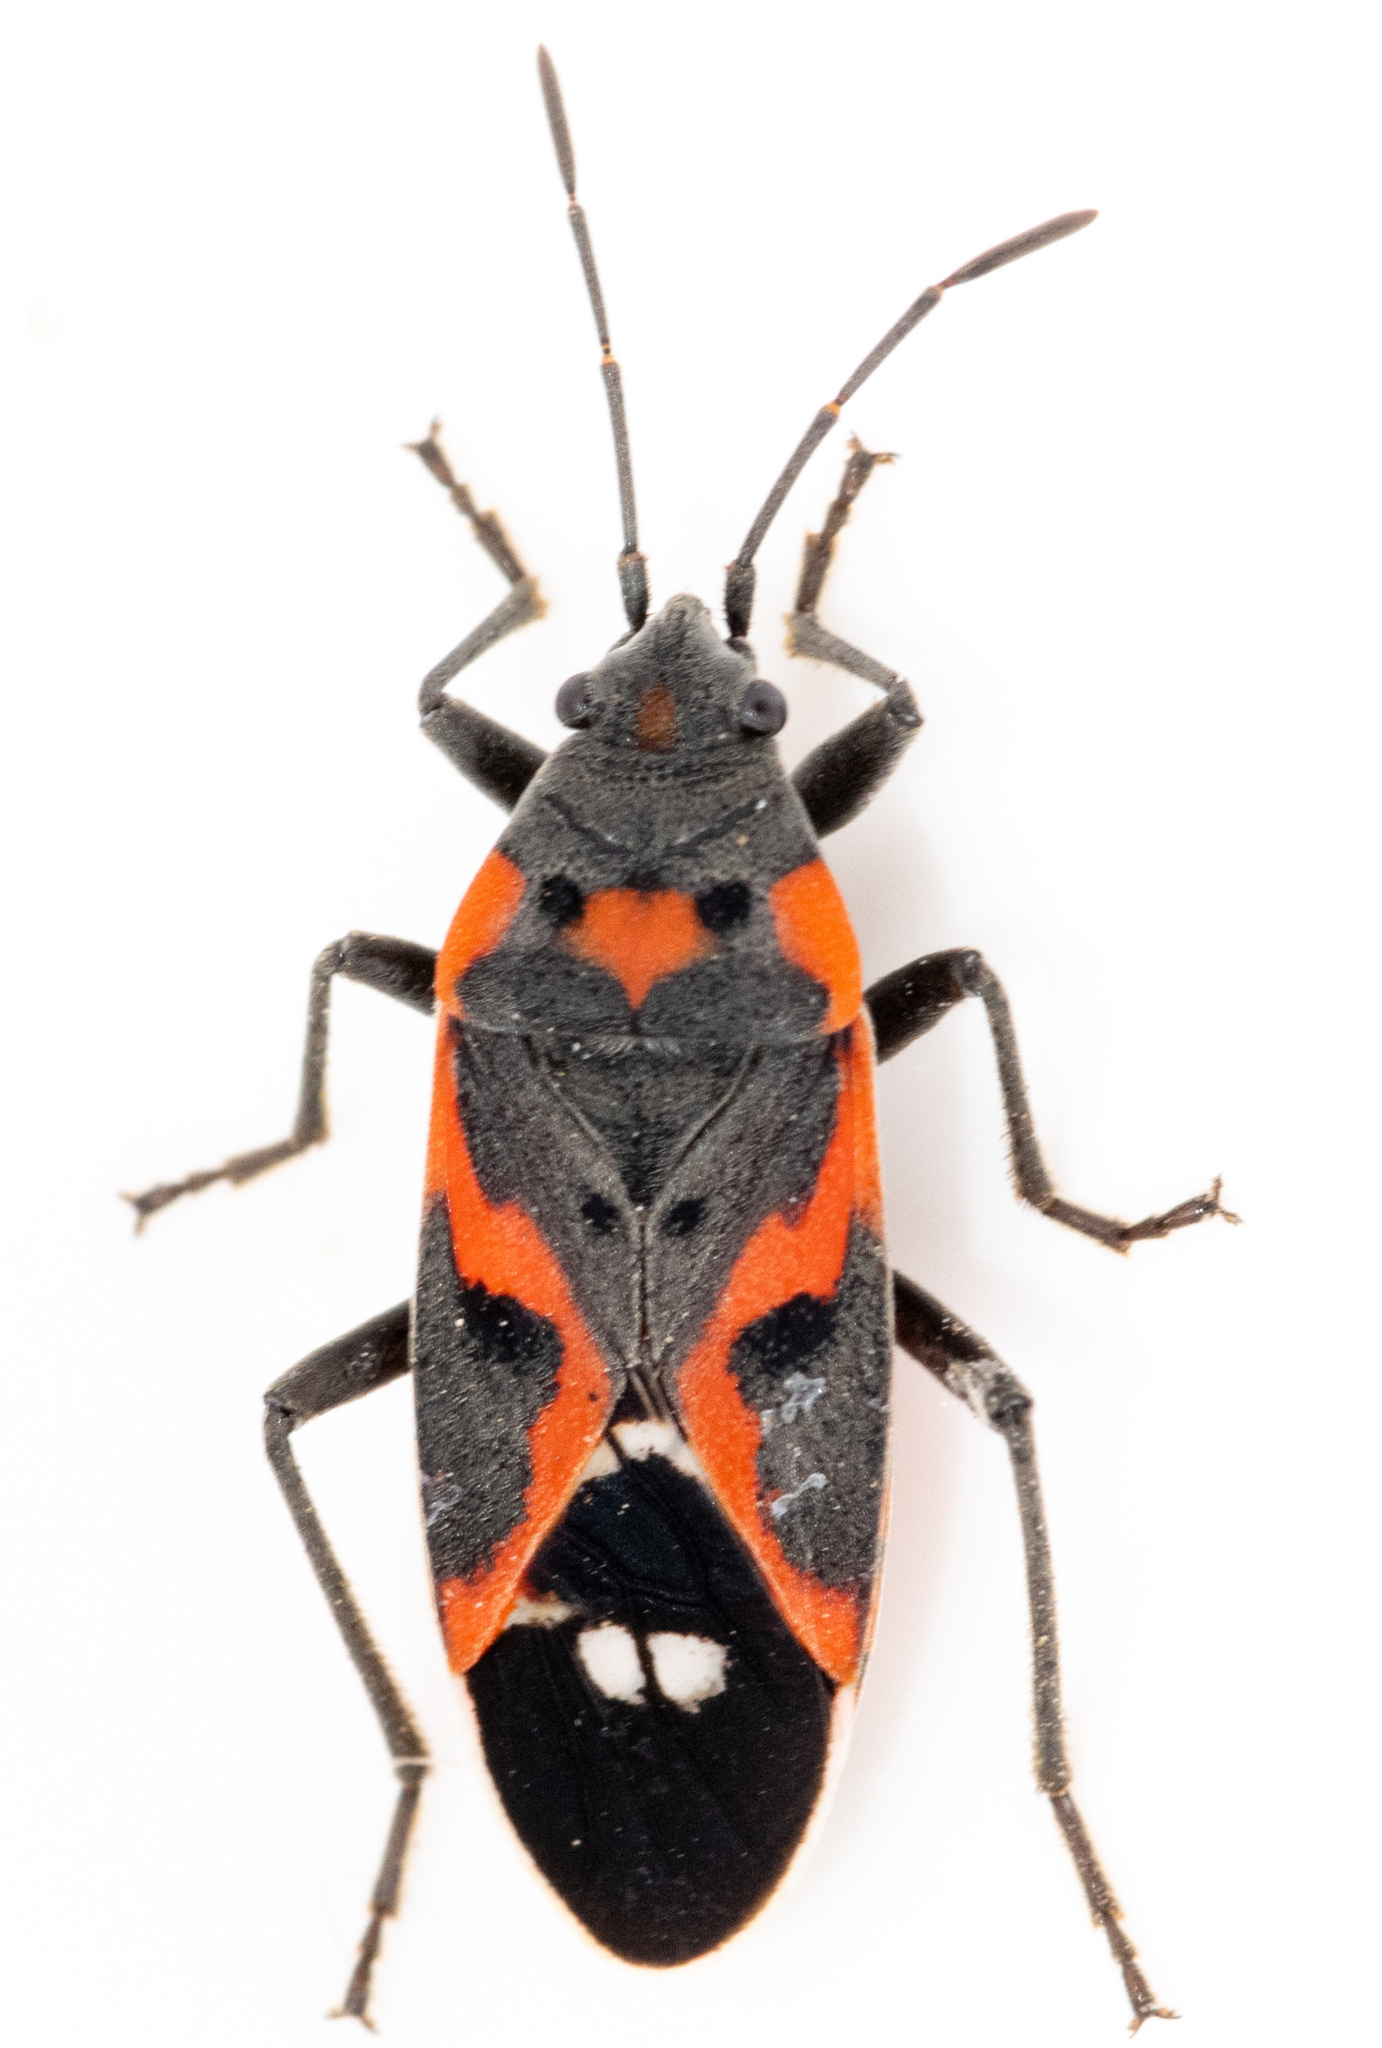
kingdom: Animalia
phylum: Arthropoda
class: Insecta
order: Hemiptera
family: Lygaeidae
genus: Lygaeus
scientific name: Lygaeus kalmii
